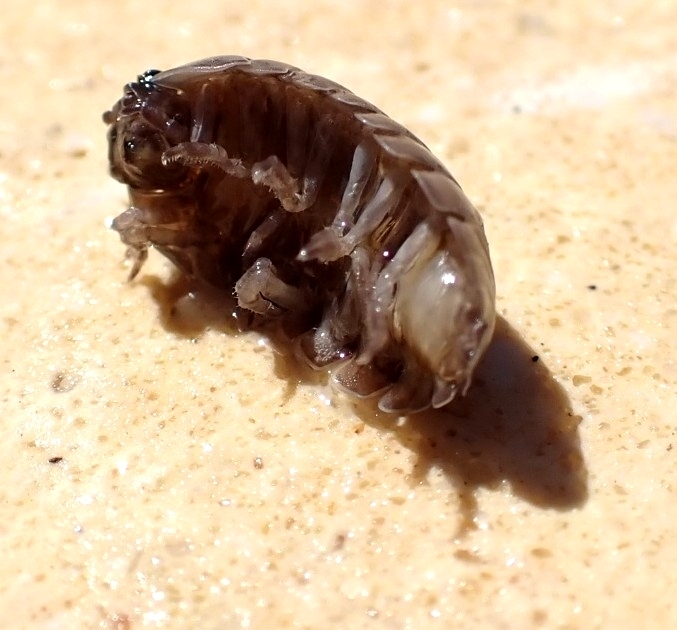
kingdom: Animalia
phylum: Arthropoda
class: Malacostraca
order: Isopoda
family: Armadillidiidae
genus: Armadillidium
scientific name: Armadillidium vulgare
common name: Common pill woodlouse
